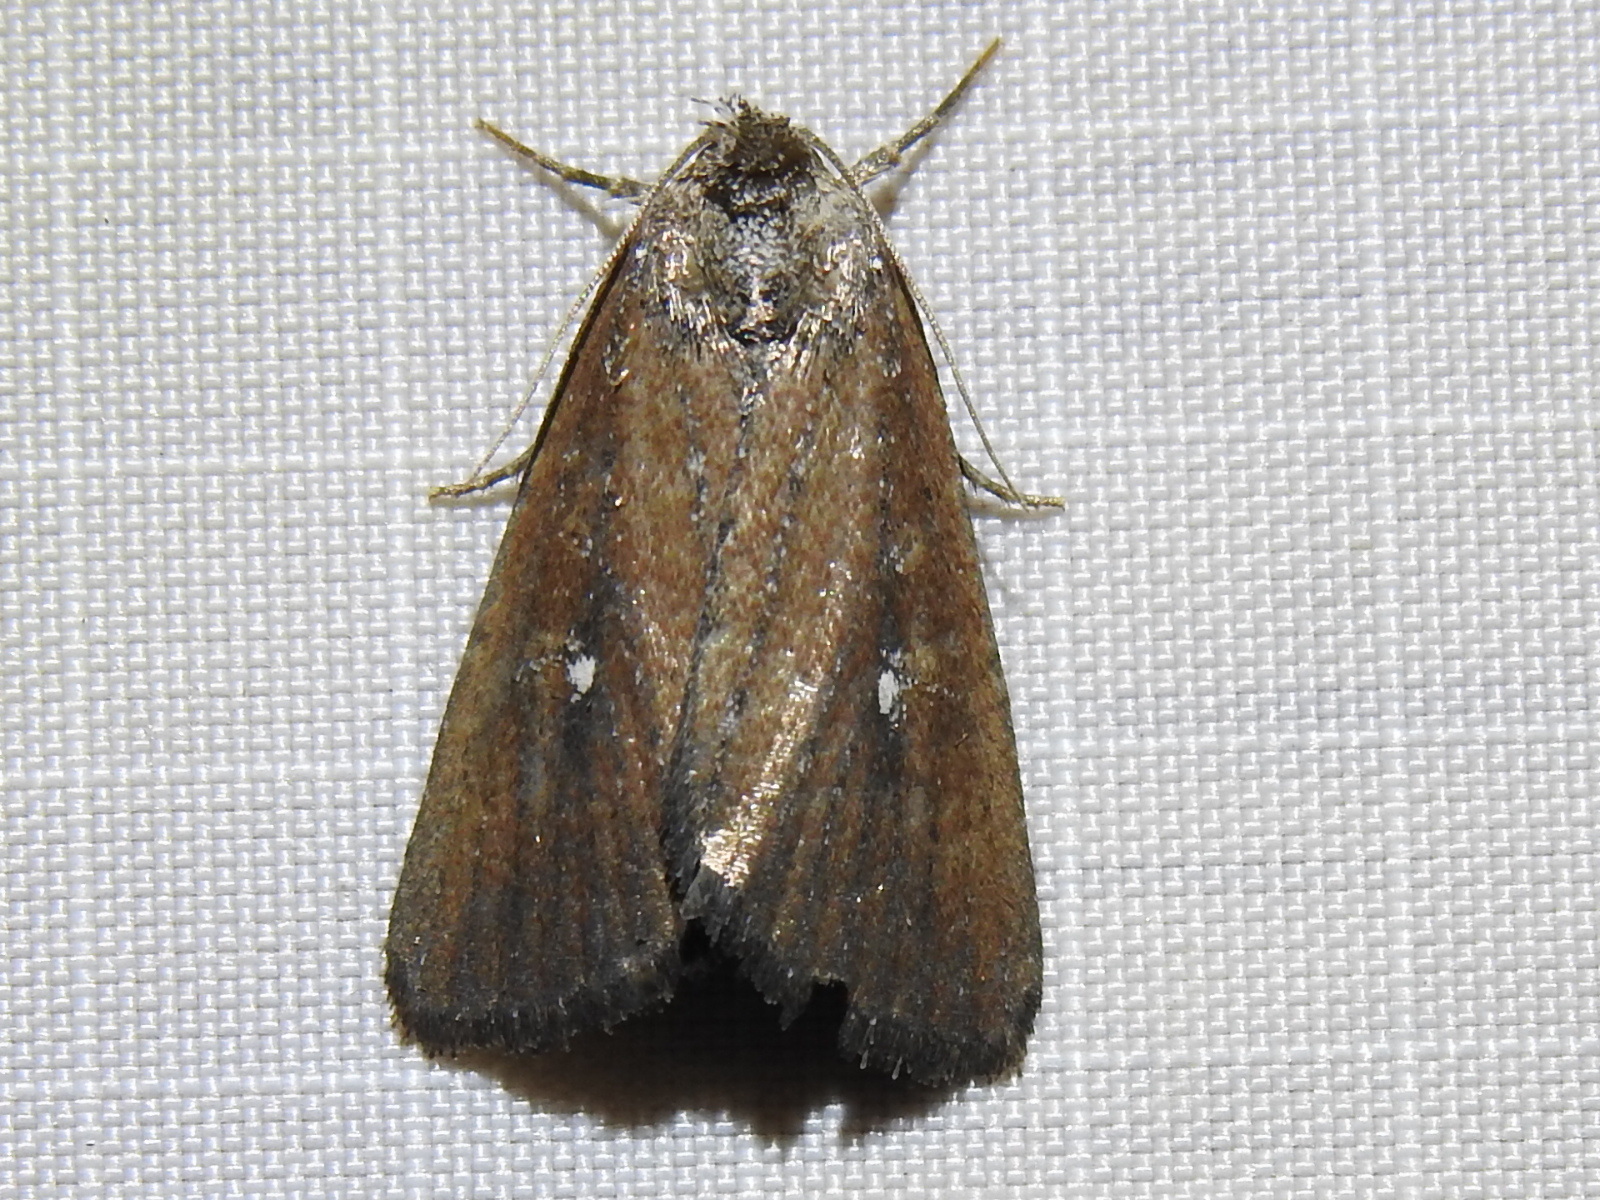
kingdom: Animalia
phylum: Arthropoda
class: Insecta
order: Lepidoptera
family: Noctuidae
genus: Condica
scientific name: Condica videns
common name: White-dotted groundling
